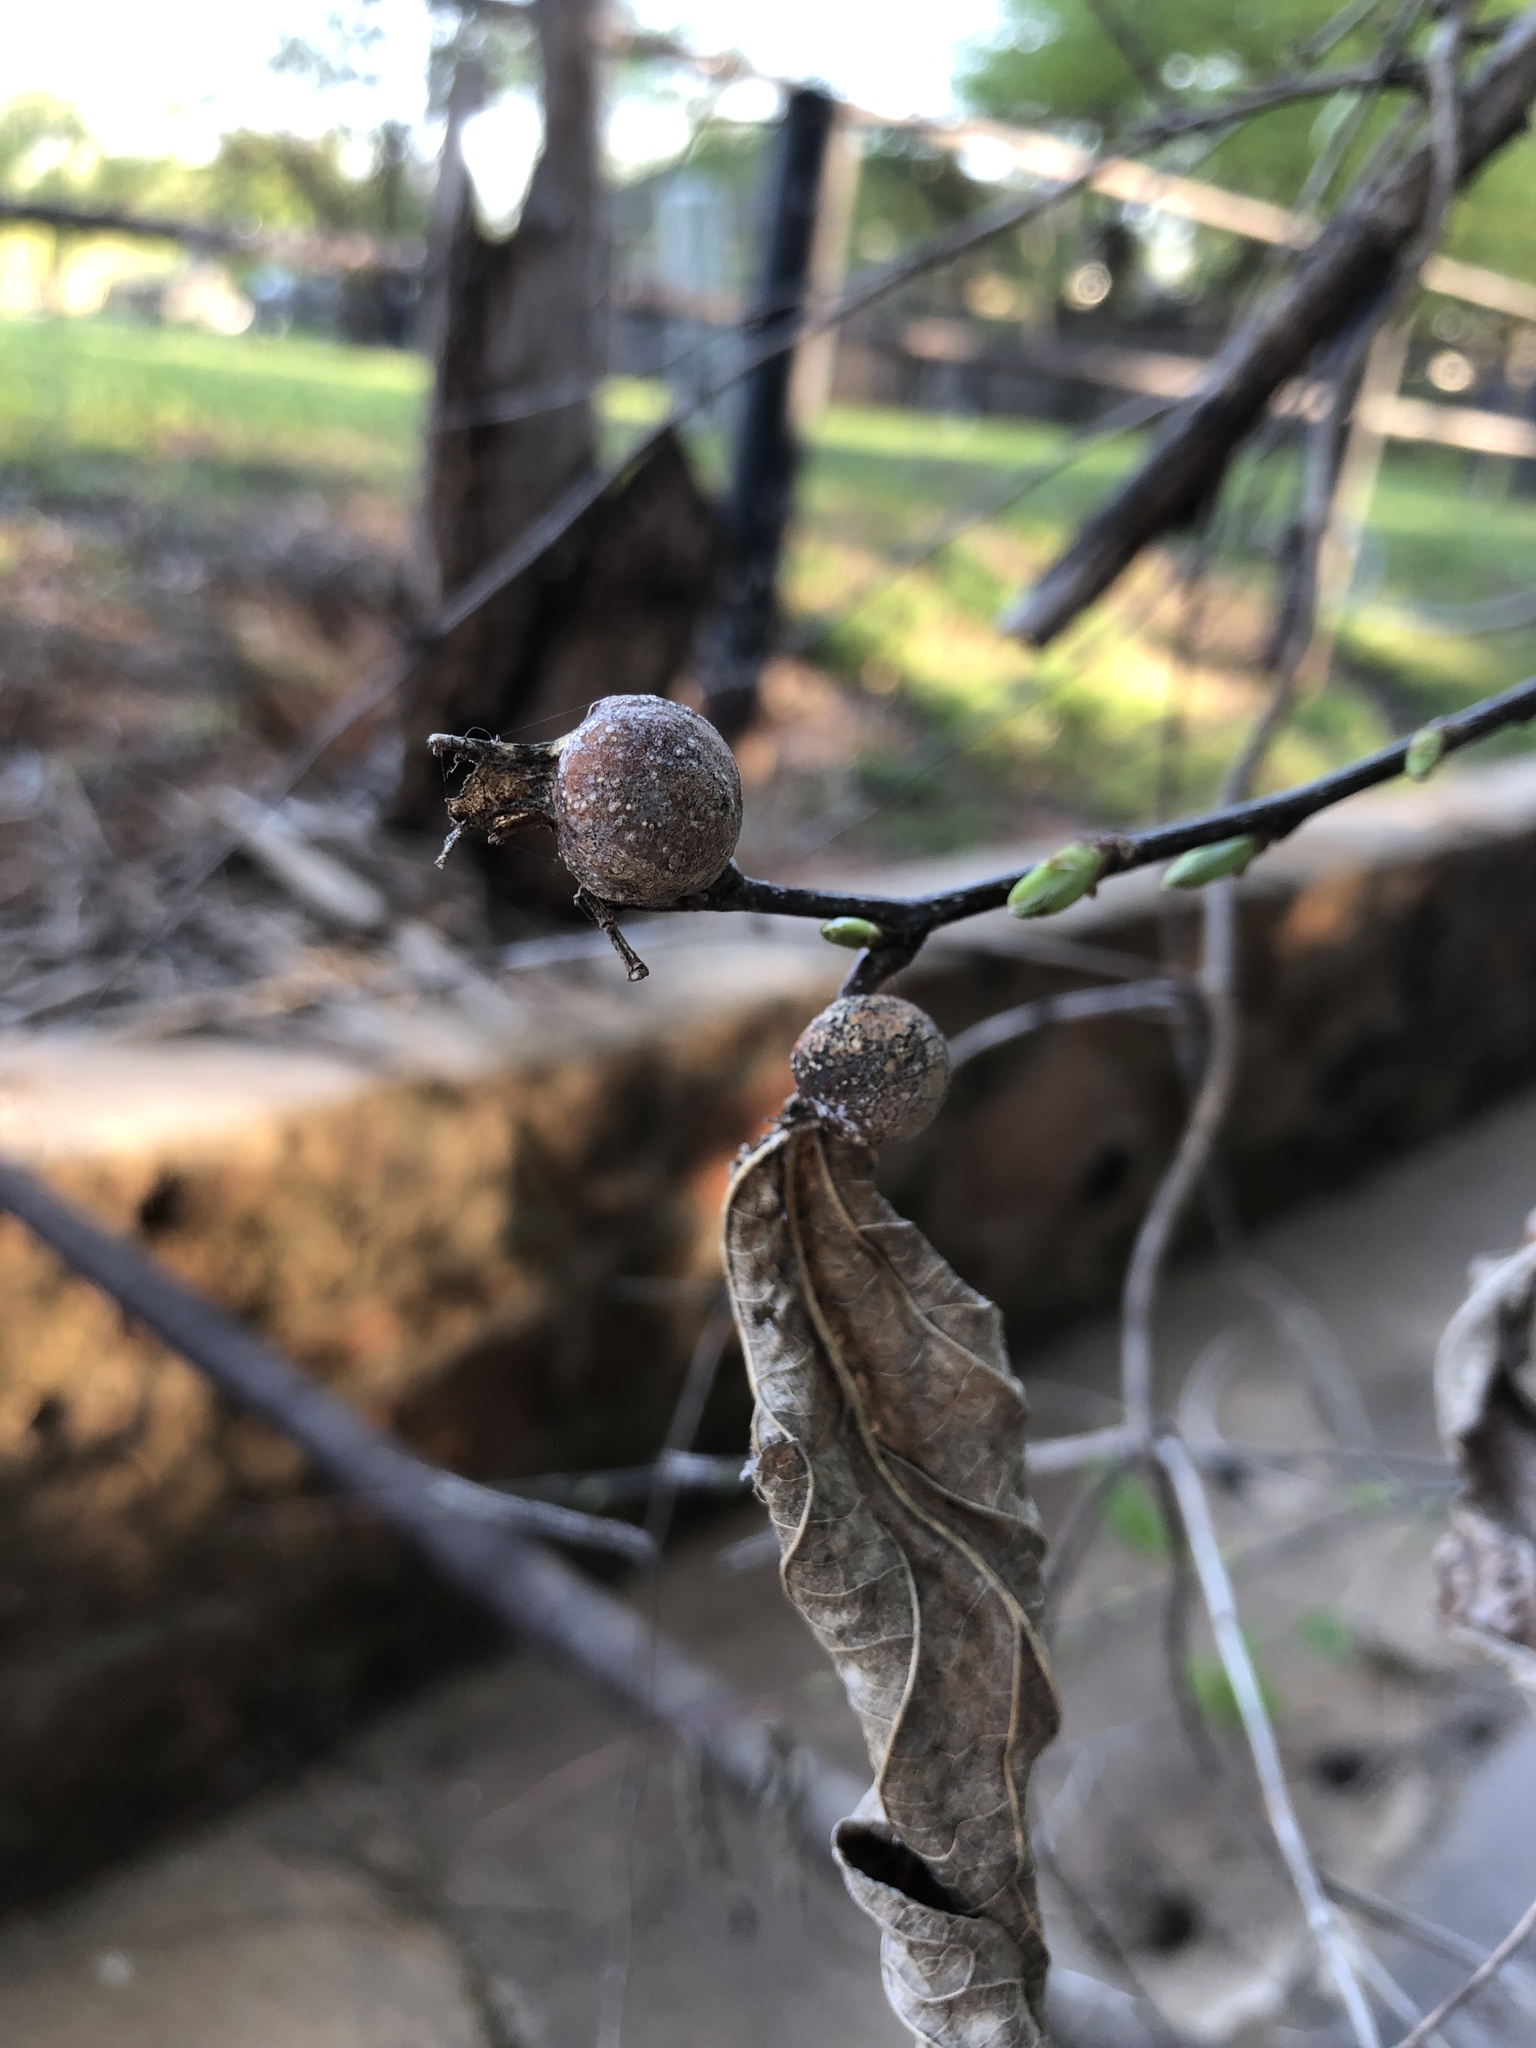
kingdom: Animalia
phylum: Arthropoda
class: Insecta
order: Hemiptera
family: Aphalaridae
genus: Pachypsylla
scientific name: Pachypsylla venusta
